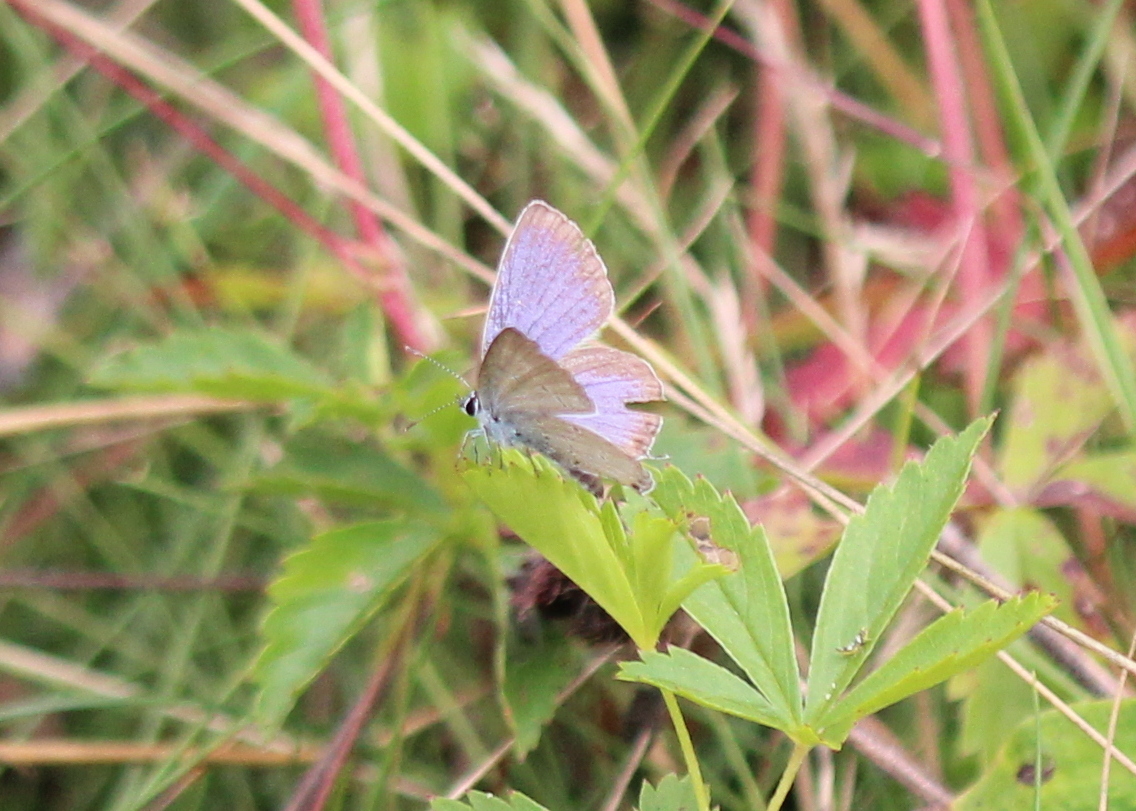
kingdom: Animalia
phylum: Arthropoda
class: Insecta
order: Lepidoptera
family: Lycaenidae
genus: Elkalyce
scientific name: Elkalyce comyntas
